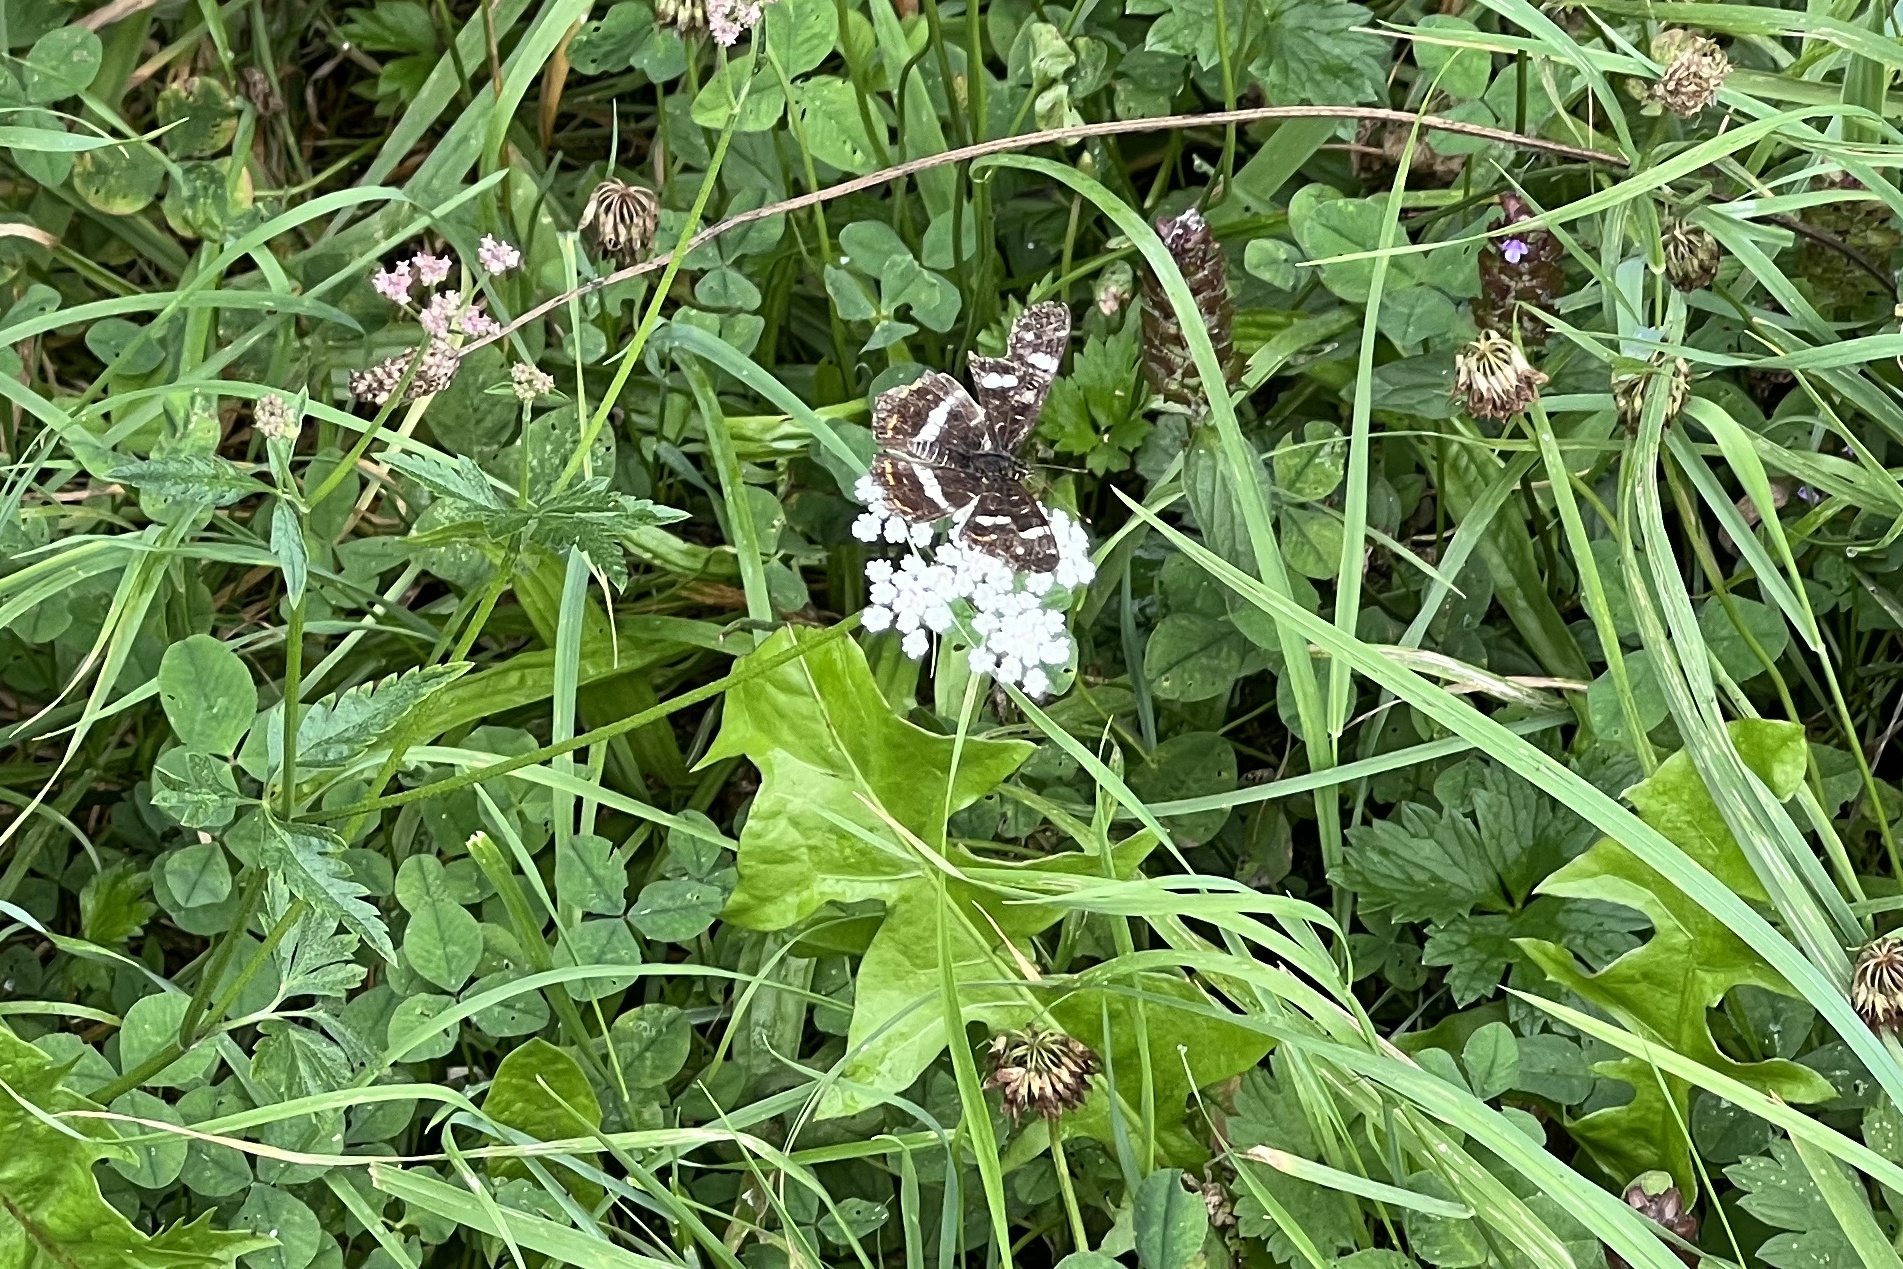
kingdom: Animalia
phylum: Arthropoda
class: Insecta
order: Lepidoptera
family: Nymphalidae
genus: Araschnia
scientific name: Araschnia levana
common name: Map butterfly
